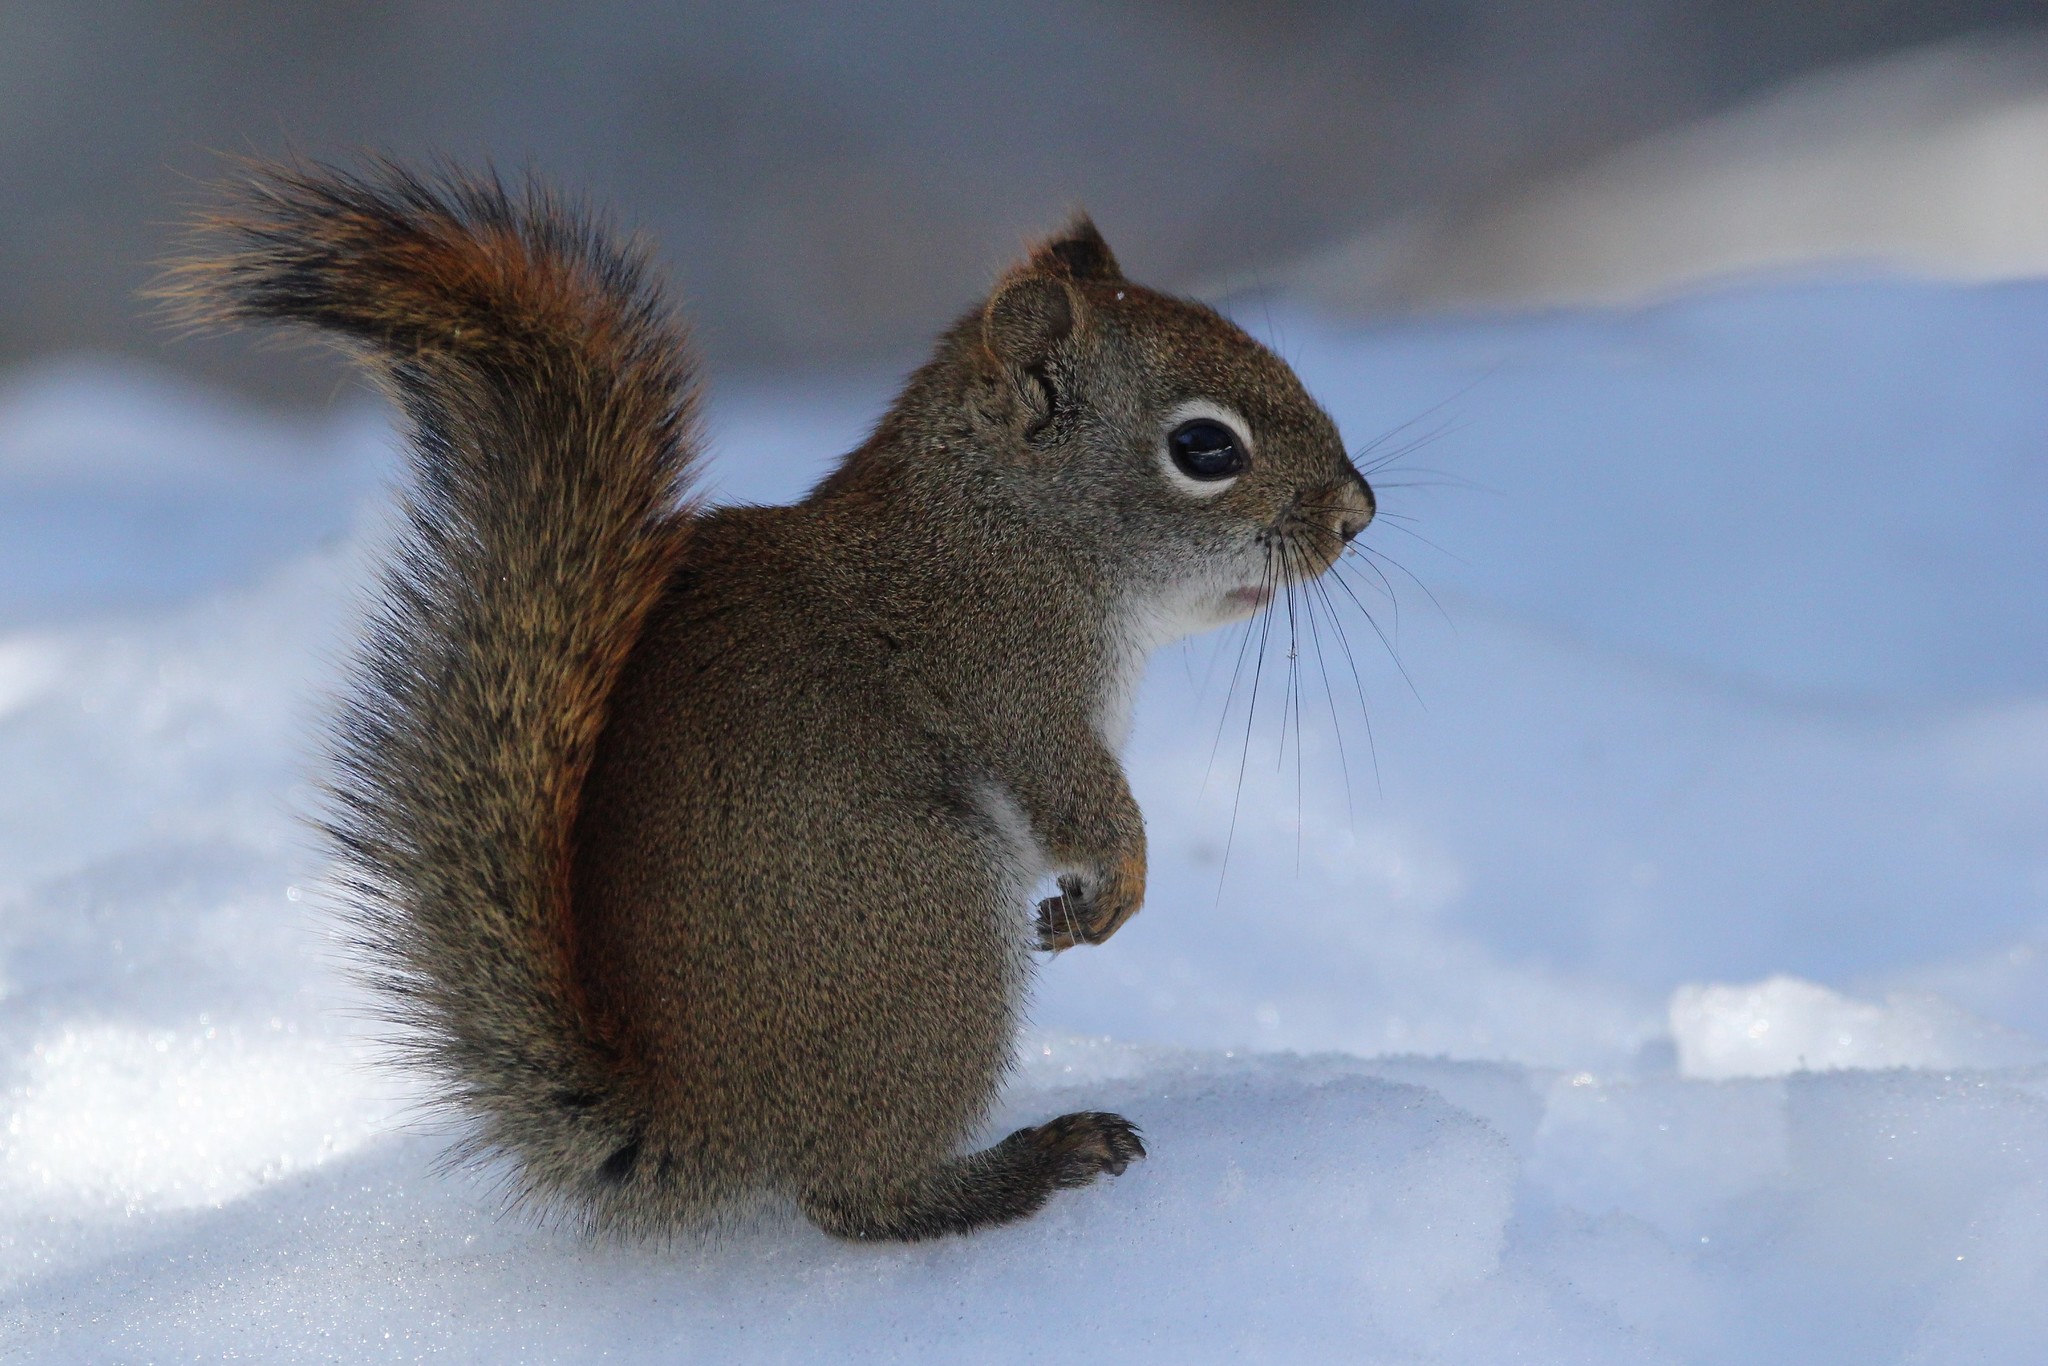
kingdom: Animalia
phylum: Chordata
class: Mammalia
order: Rodentia
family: Sciuridae
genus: Tamiasciurus
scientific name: Tamiasciurus hudsonicus
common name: Red squirrel
